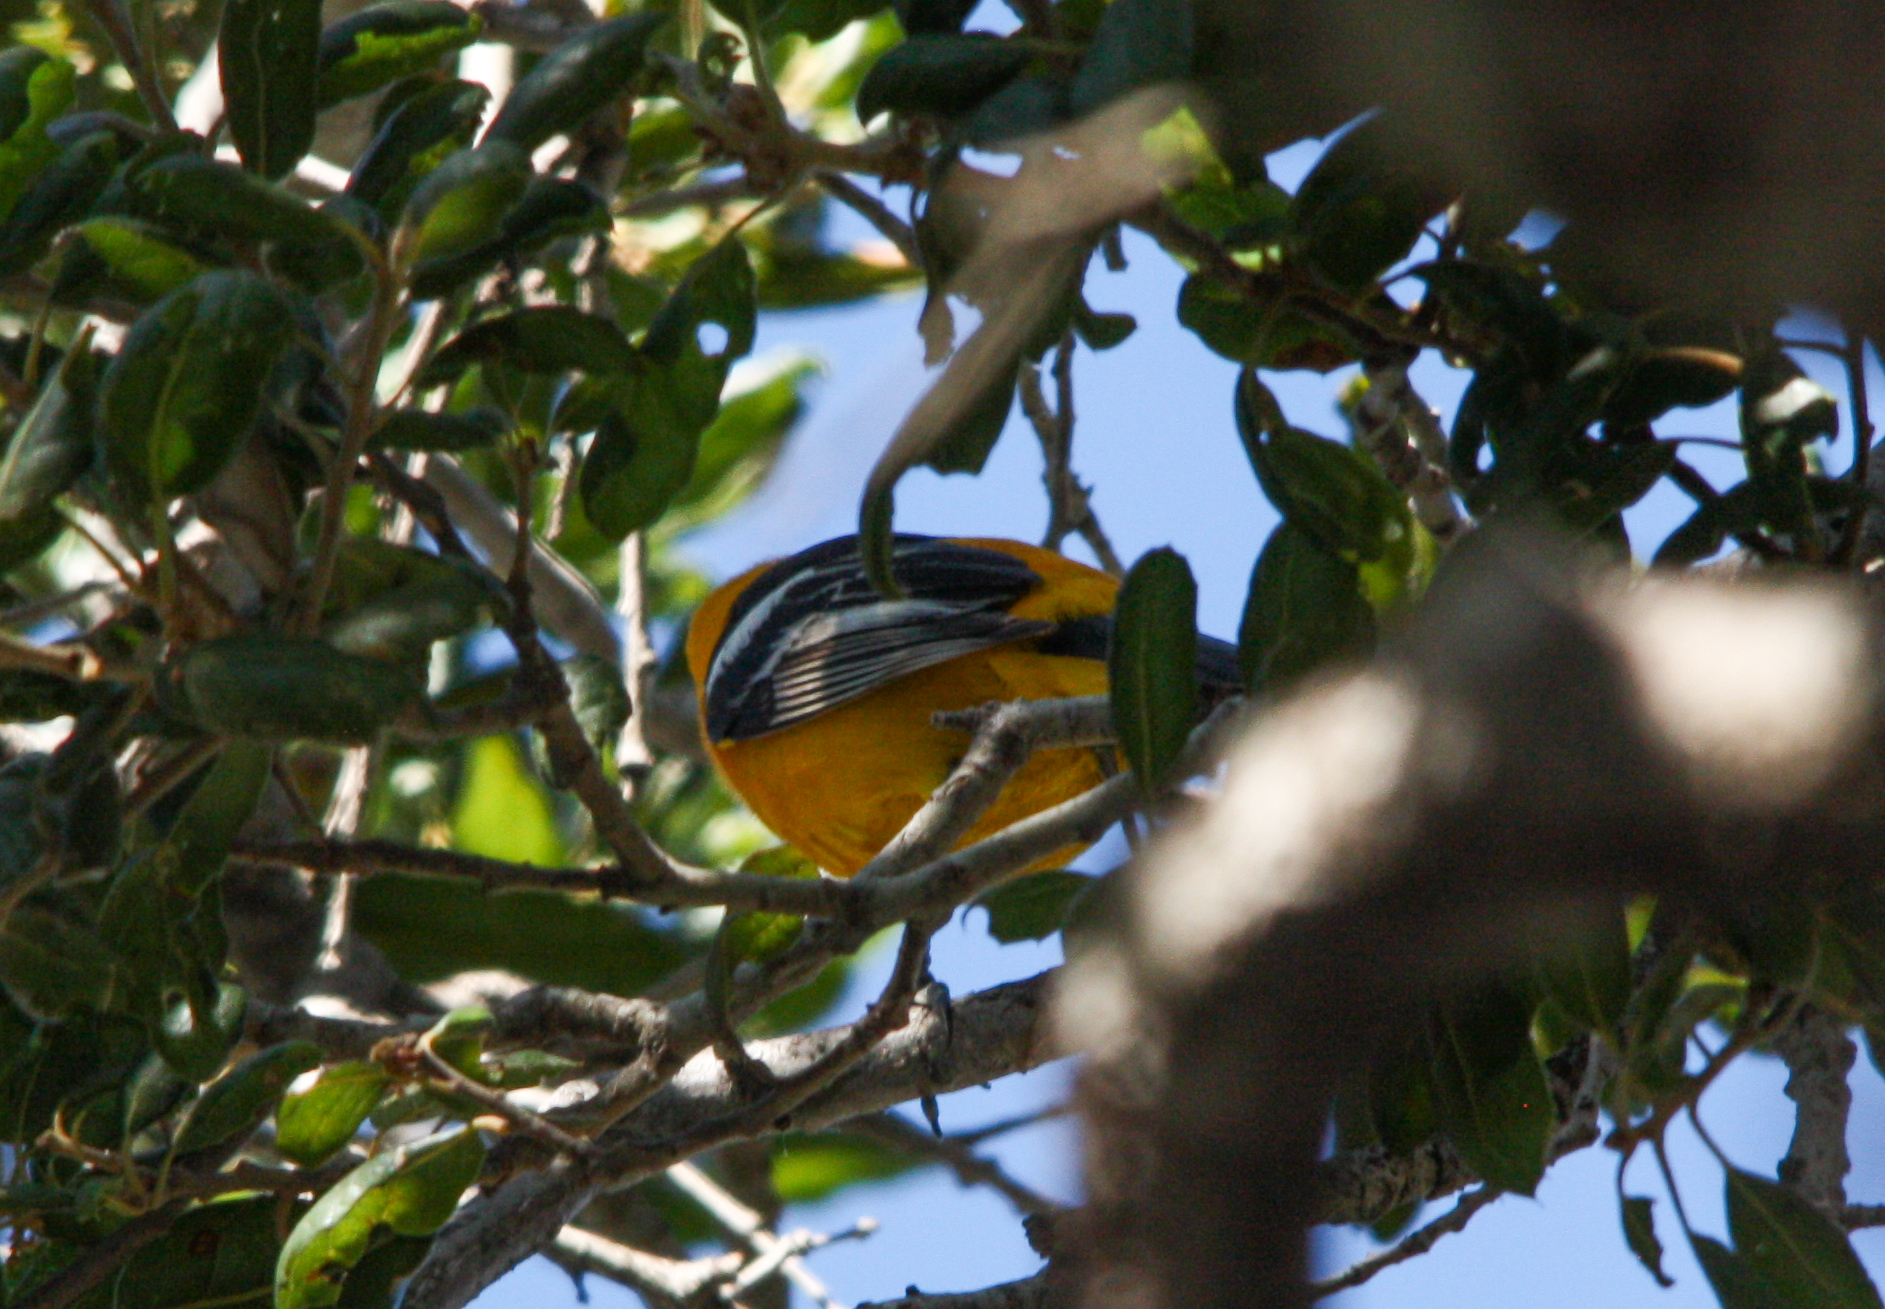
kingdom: Animalia
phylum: Chordata
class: Aves
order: Passeriformes
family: Icteridae
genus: Icterus
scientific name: Icterus cucullatus
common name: Hooded oriole
